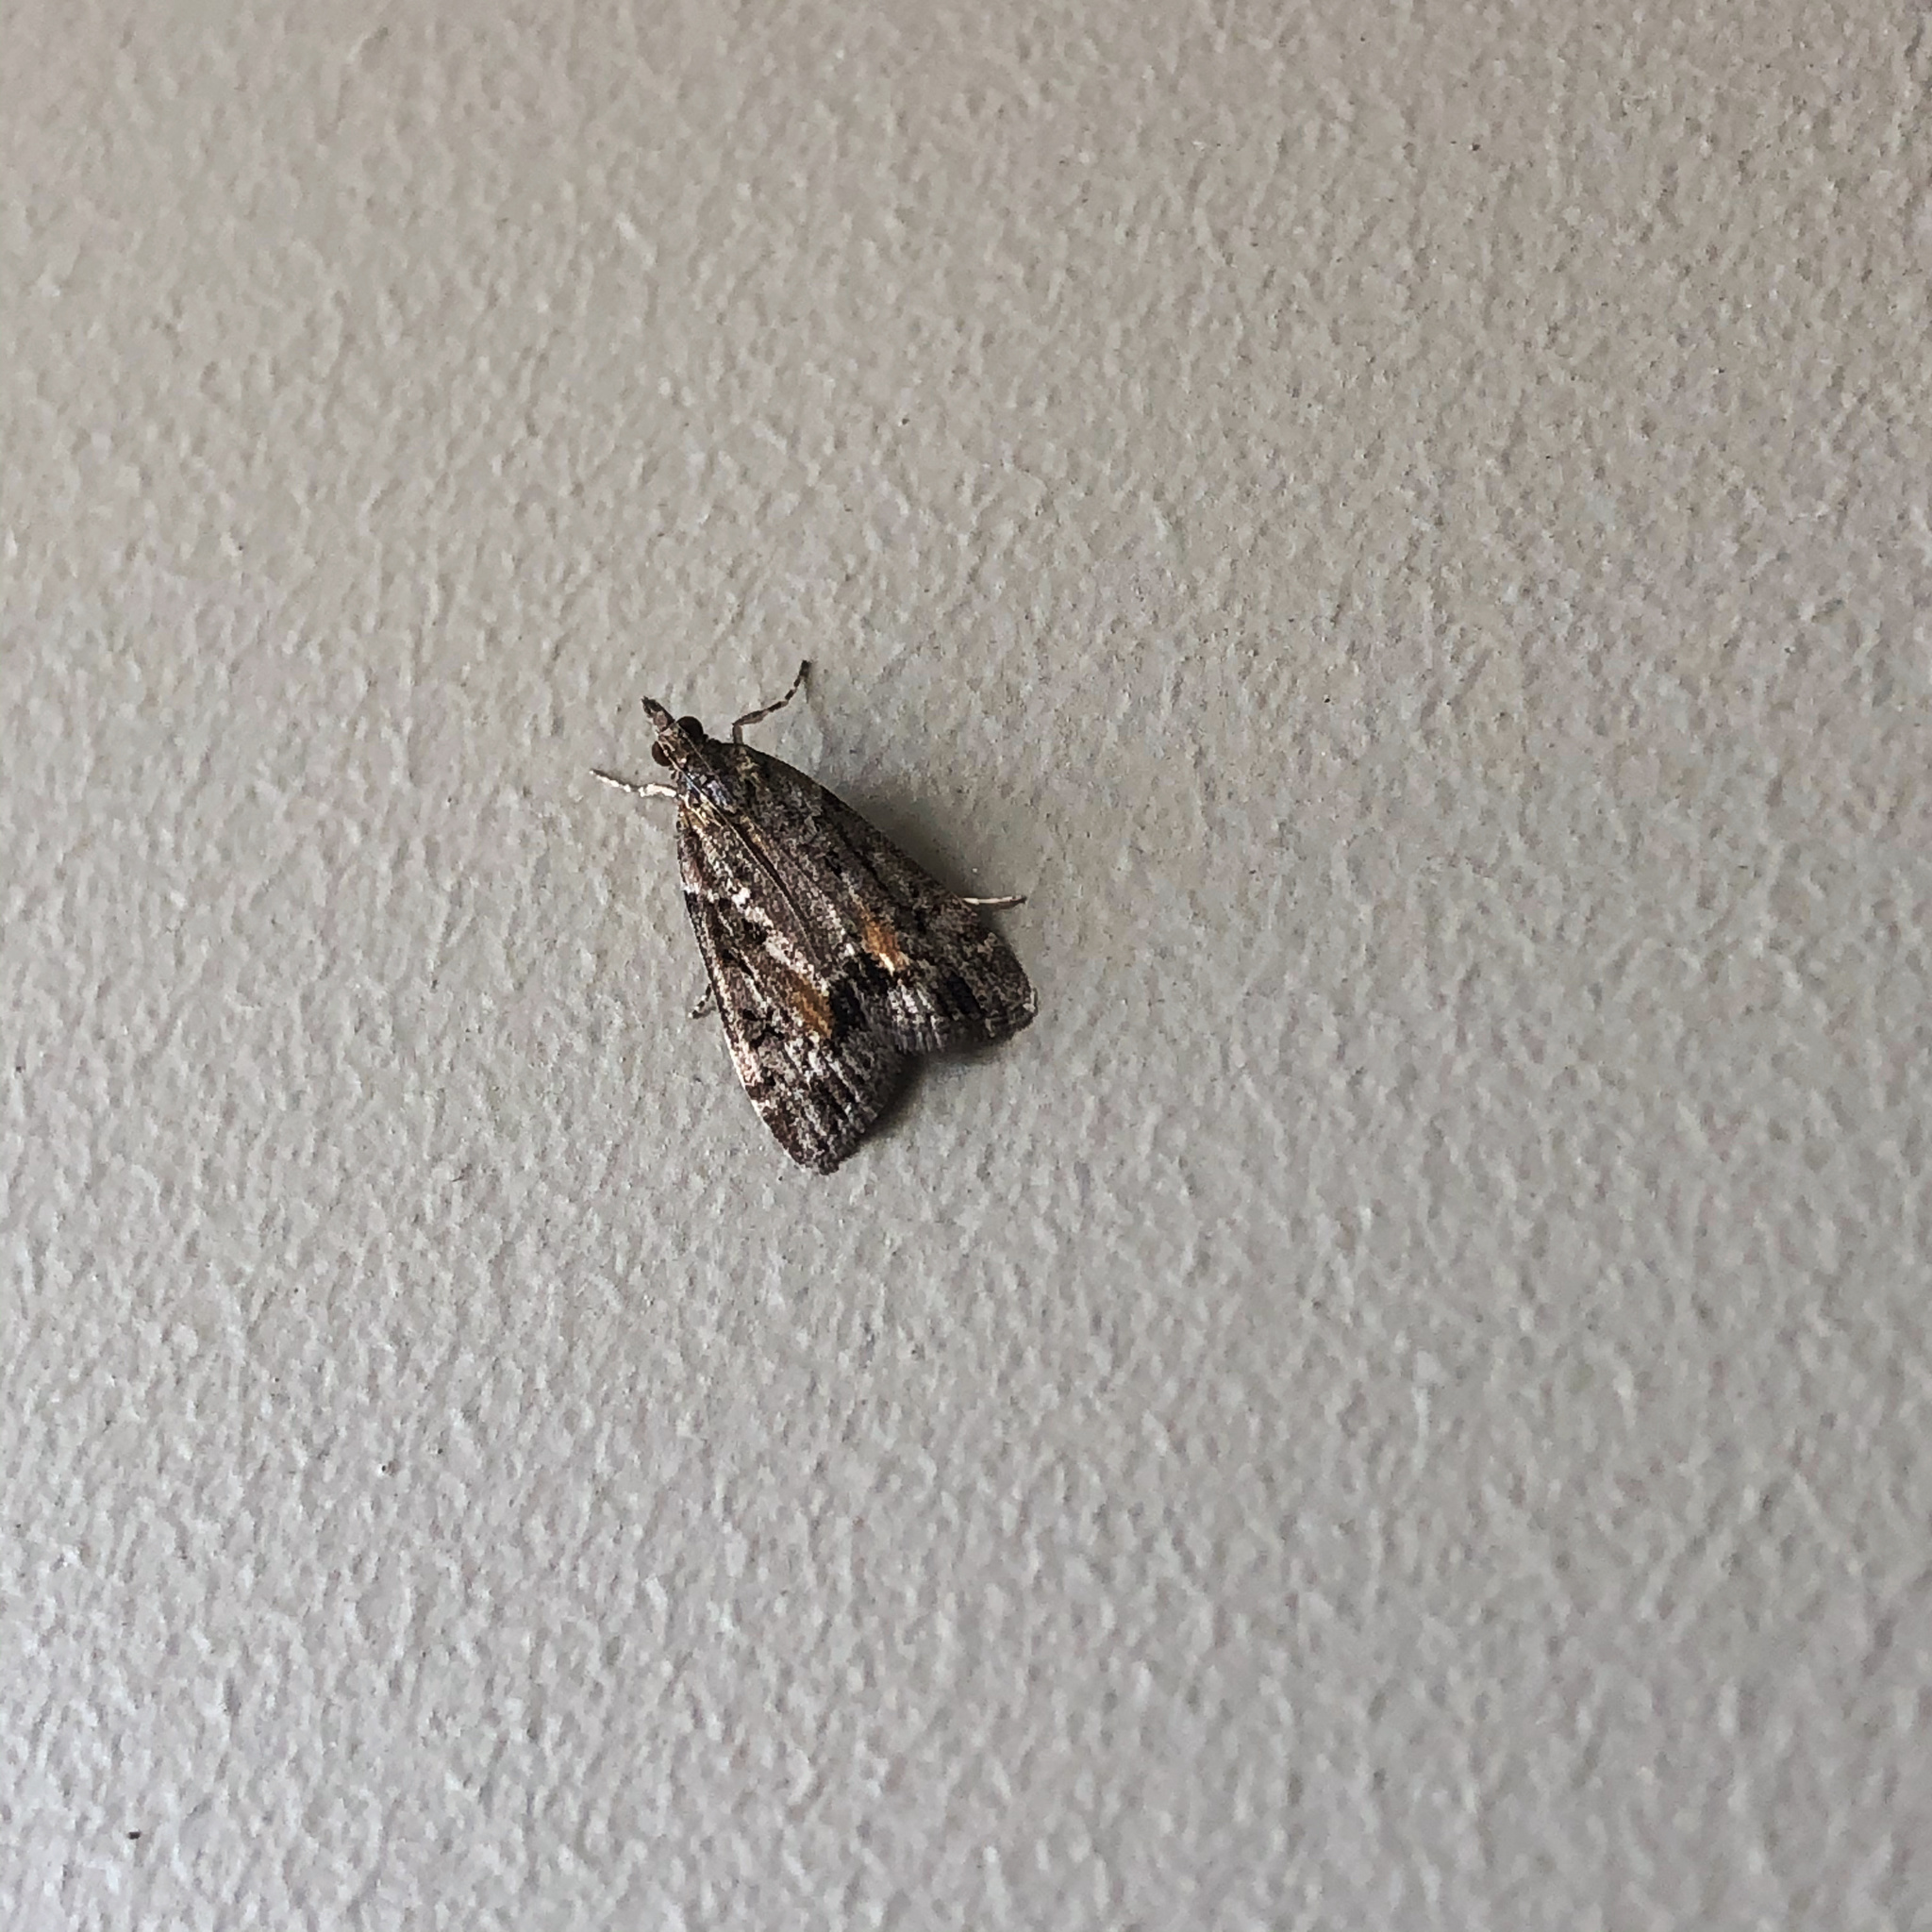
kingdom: Animalia
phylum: Arthropoda
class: Insecta
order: Lepidoptera
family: Crambidae
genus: Eudonia
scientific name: Eudonia submarginalis
